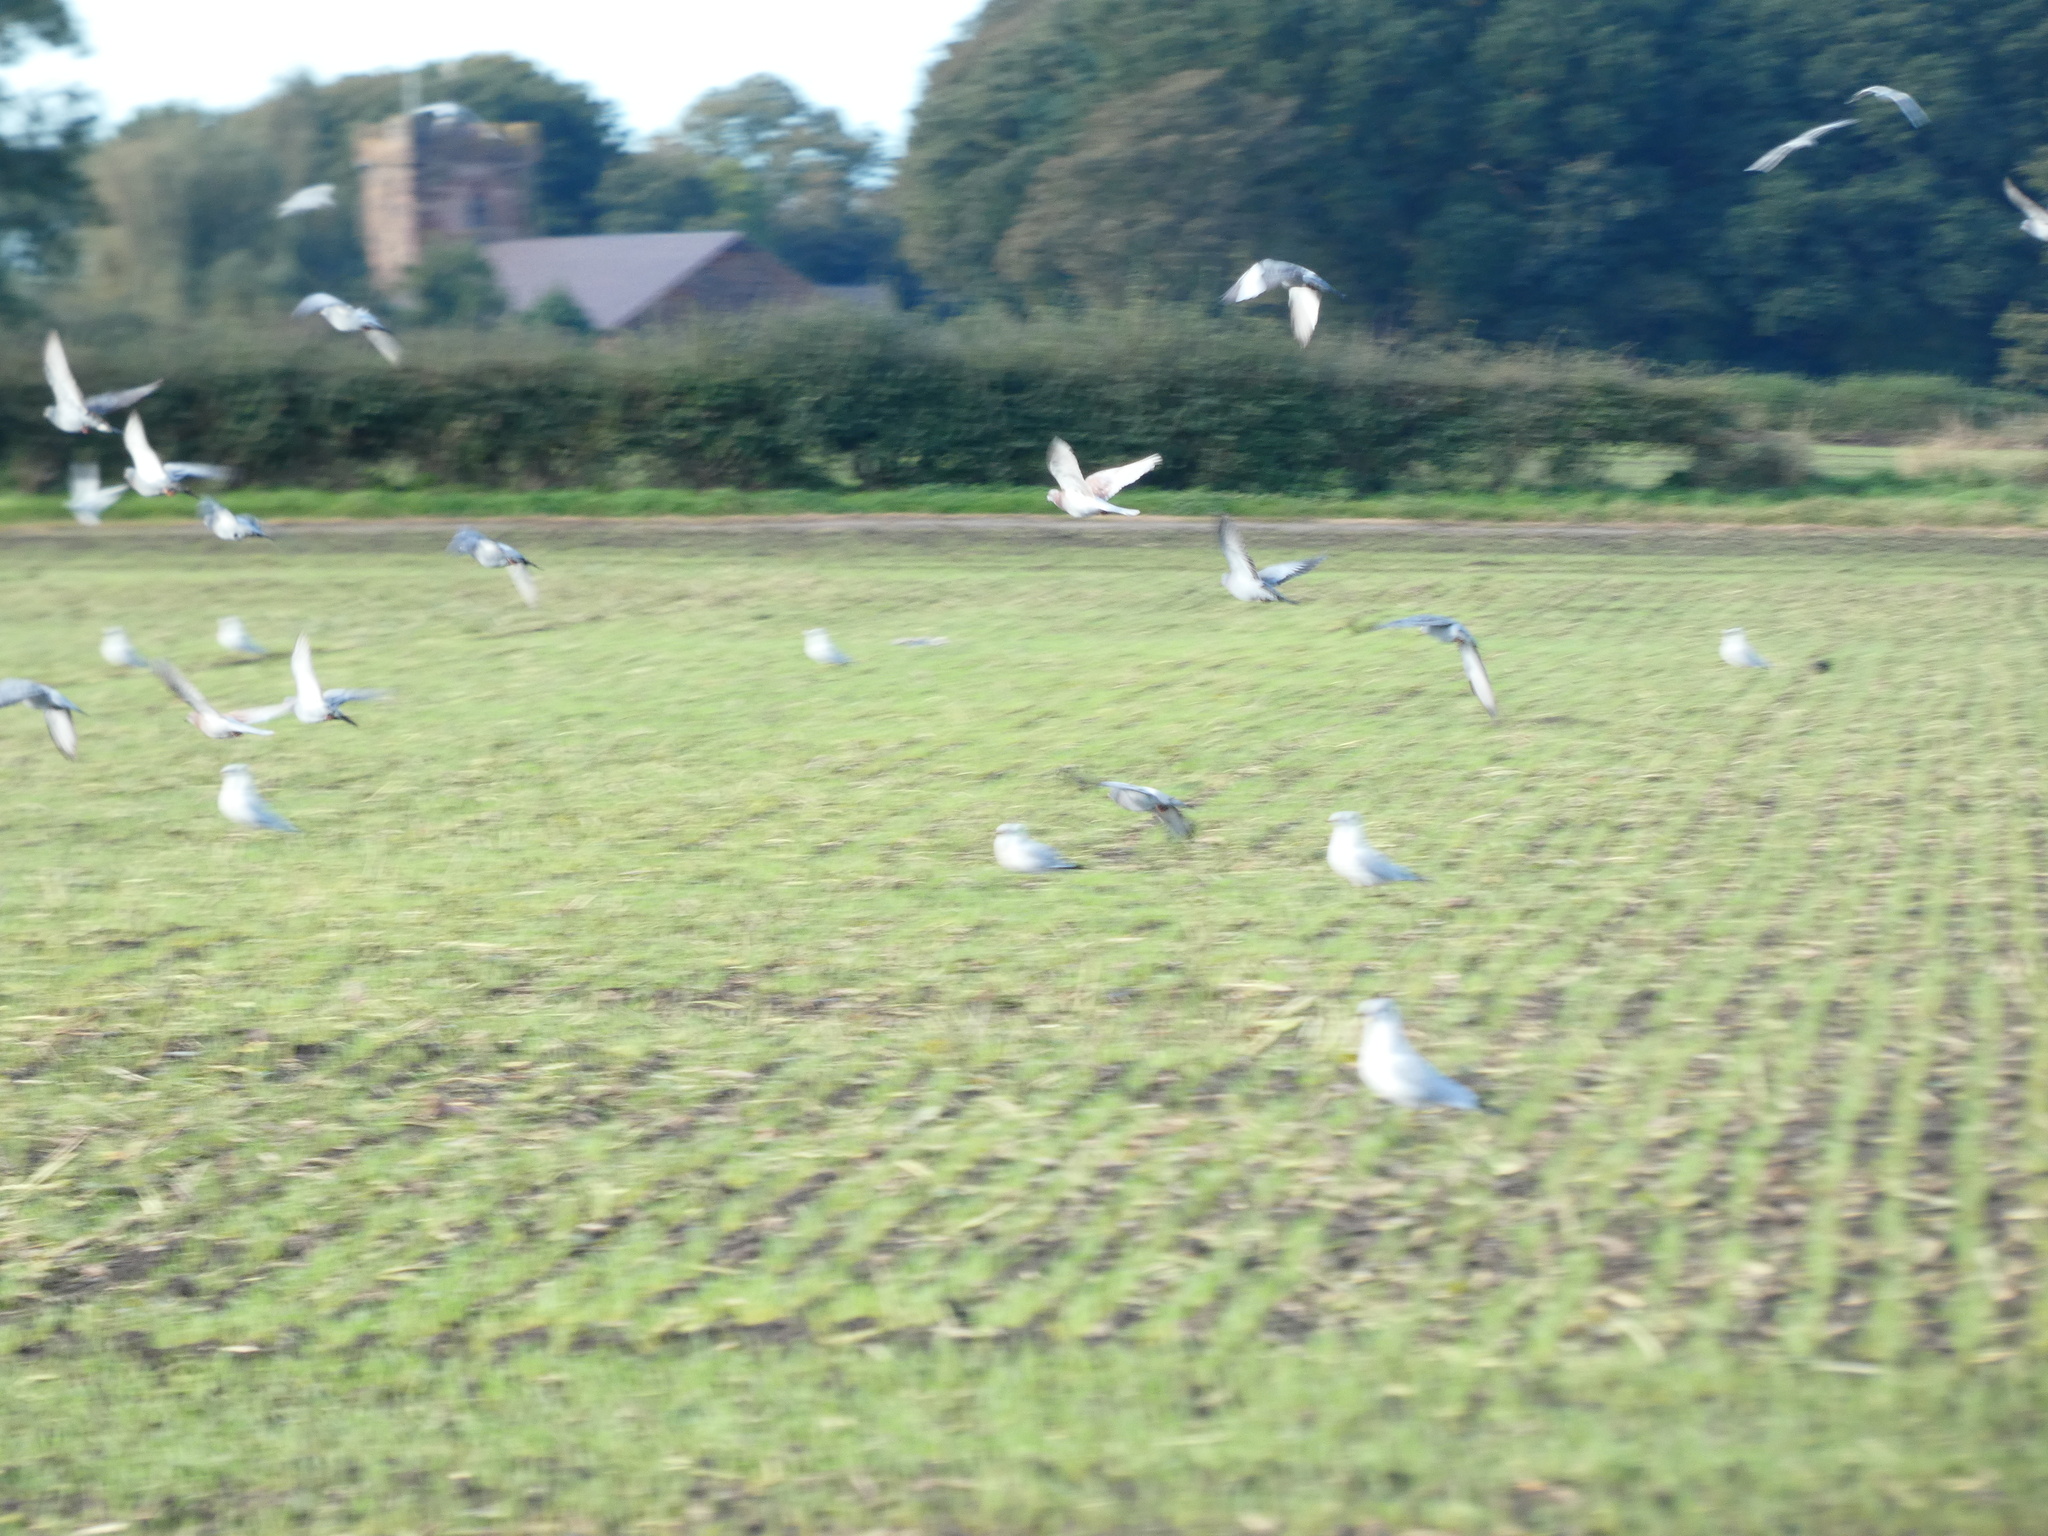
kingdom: Animalia
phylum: Chordata
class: Aves
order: Columbiformes
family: Columbidae
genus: Columba
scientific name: Columba livia
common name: Rock pigeon
